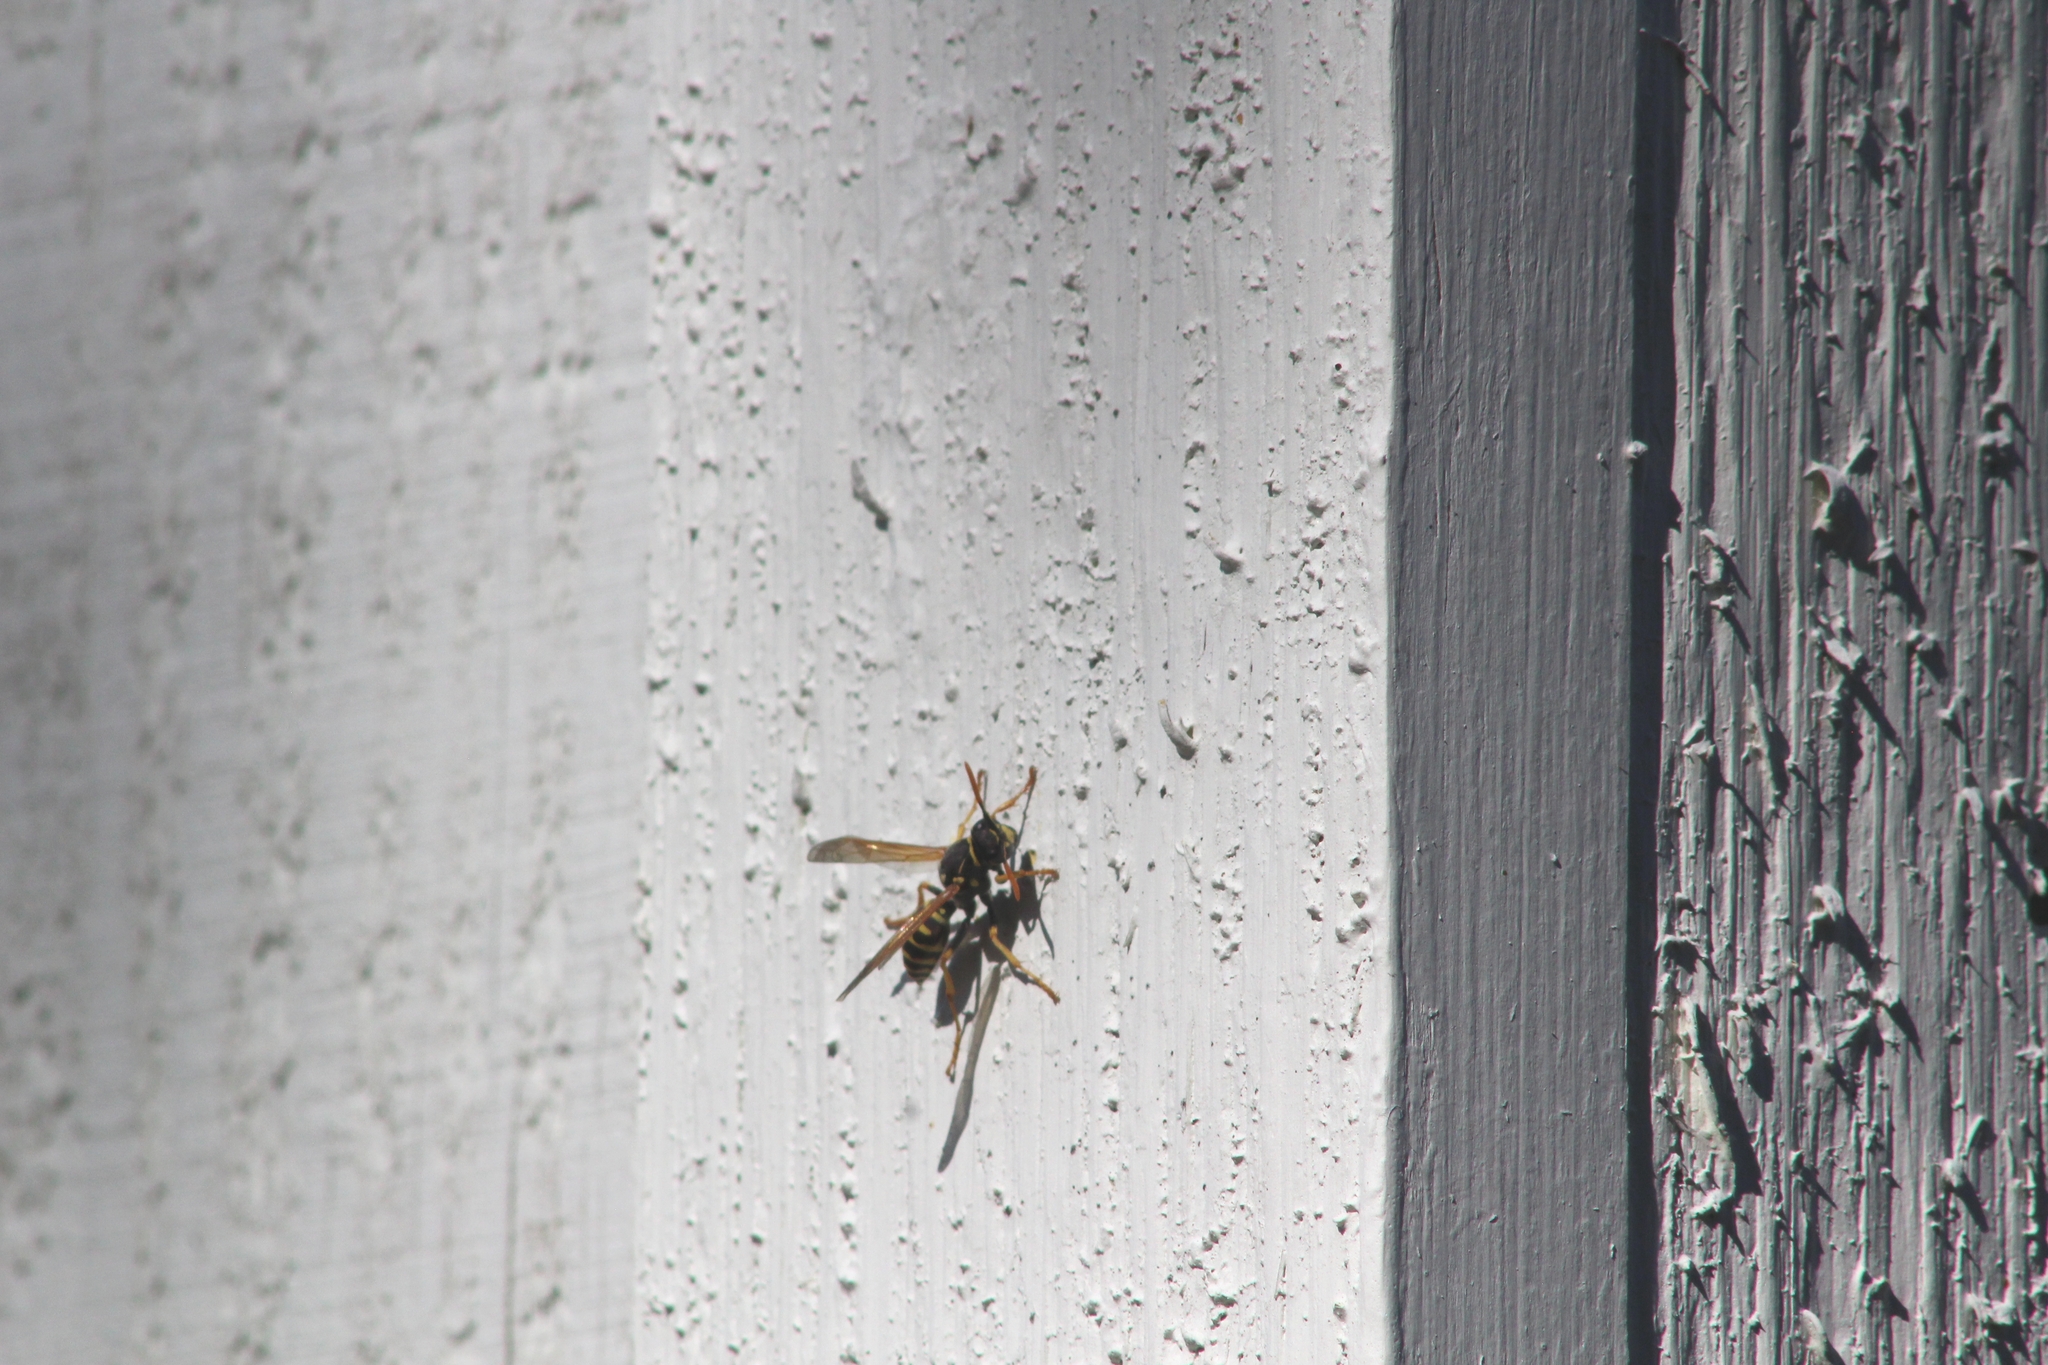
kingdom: Animalia
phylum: Arthropoda
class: Insecta
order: Hymenoptera
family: Eumenidae
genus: Polistes
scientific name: Polistes dominula
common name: Paper wasp
